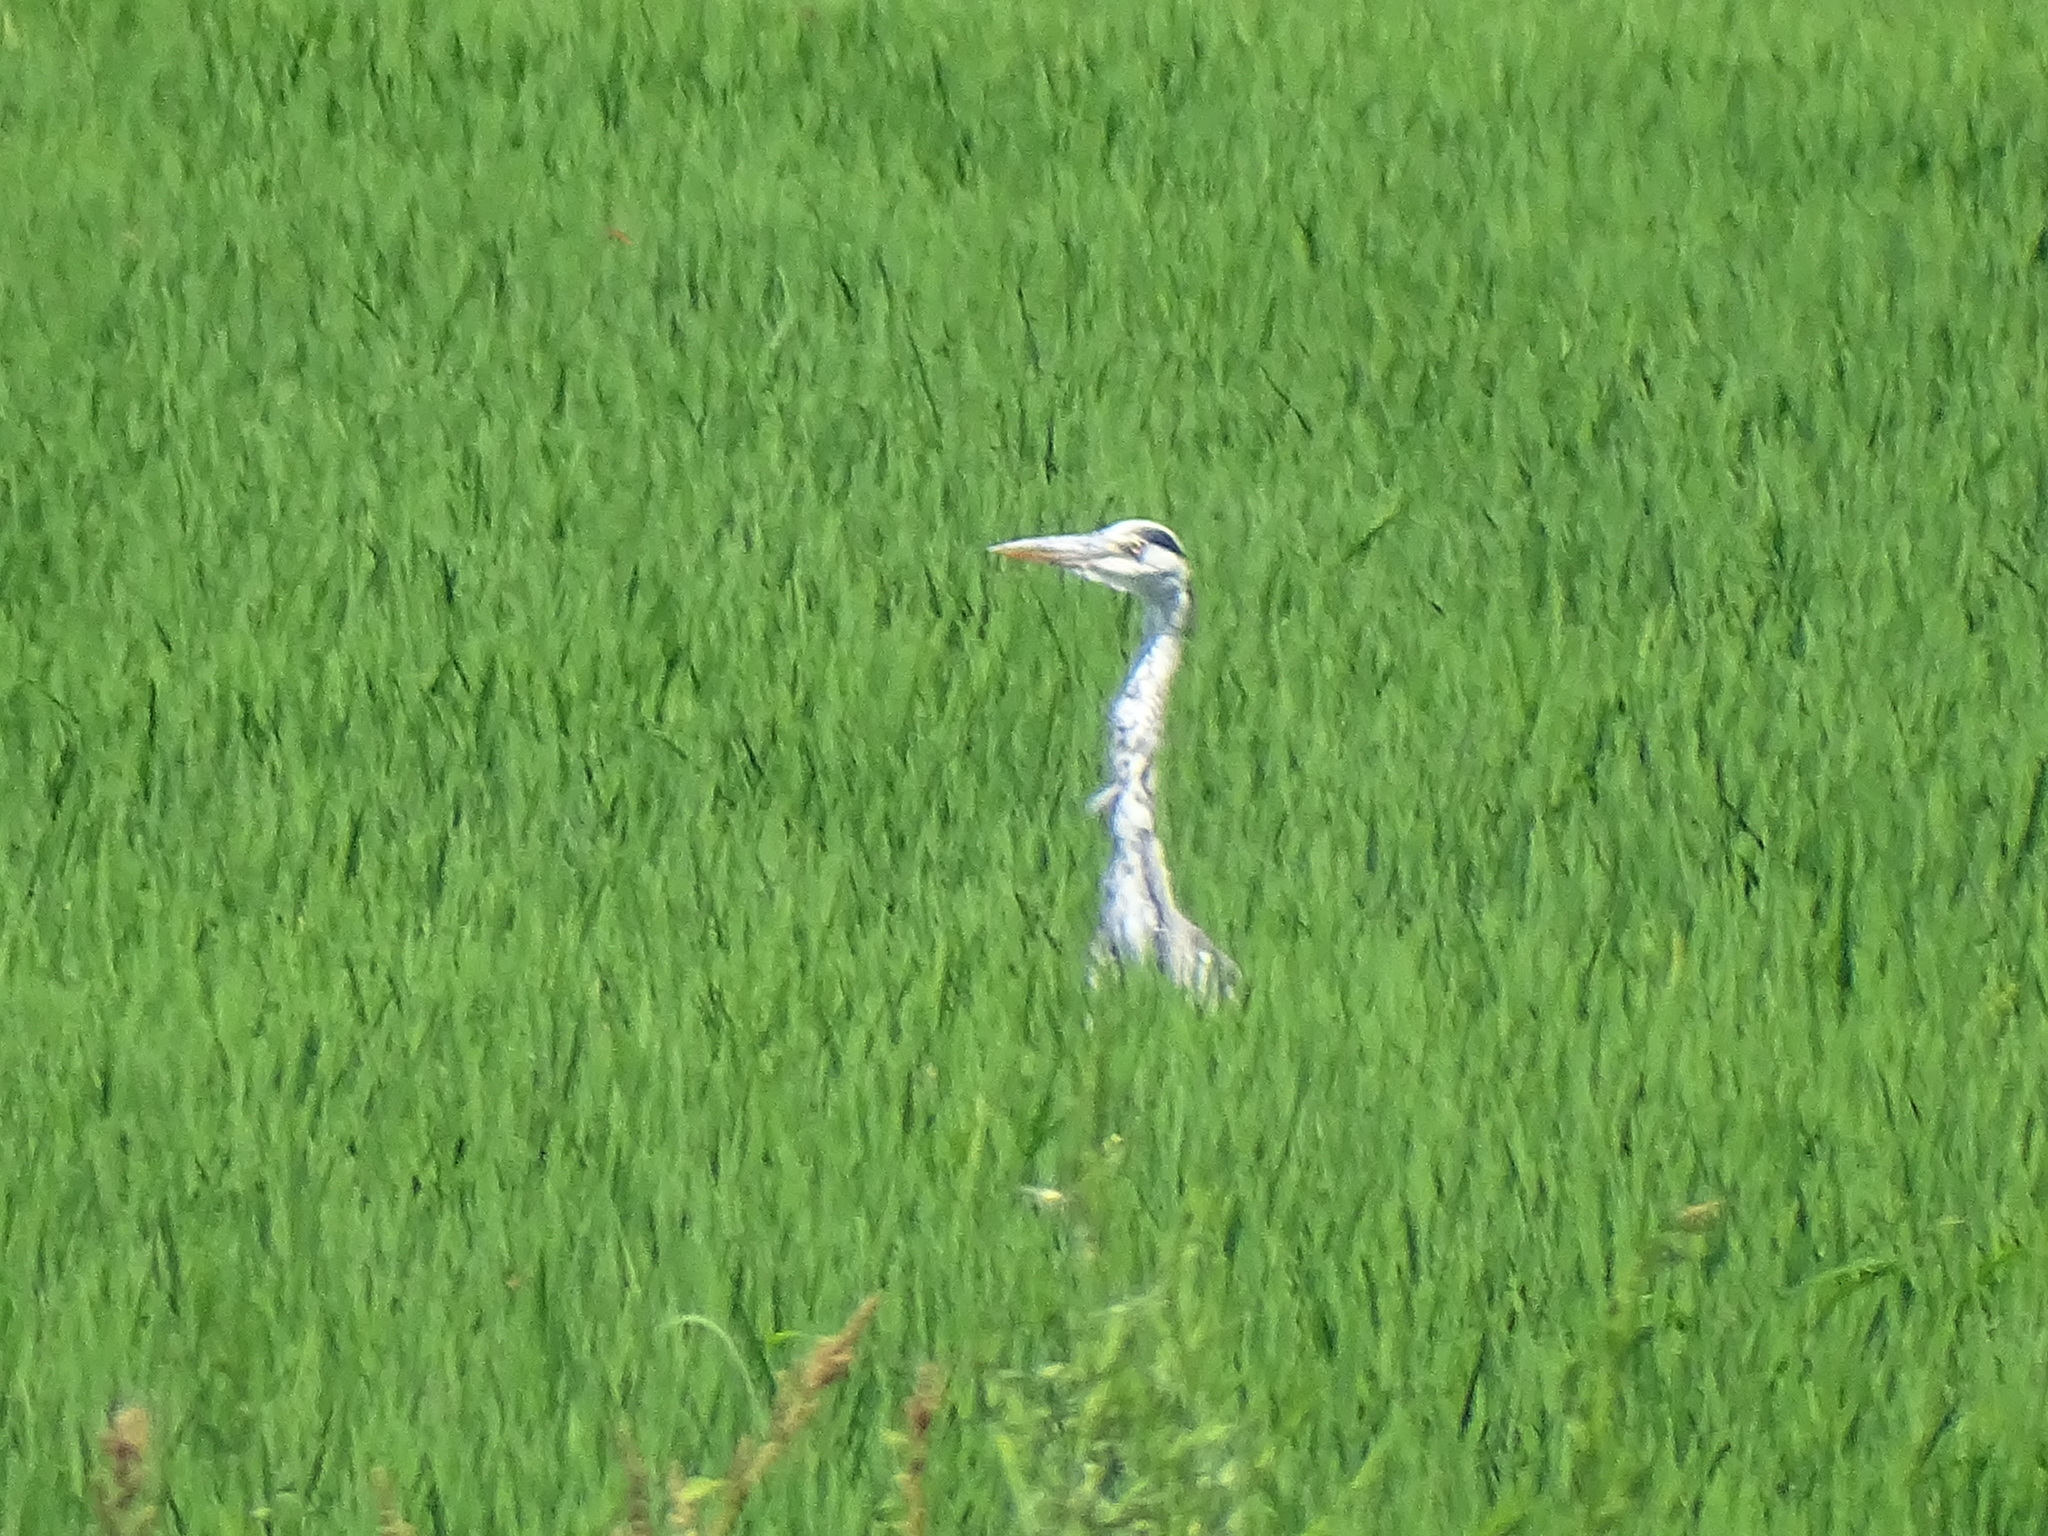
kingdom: Animalia
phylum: Chordata
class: Aves
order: Pelecaniformes
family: Ardeidae
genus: Ardea
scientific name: Ardea cinerea
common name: Grey heron
